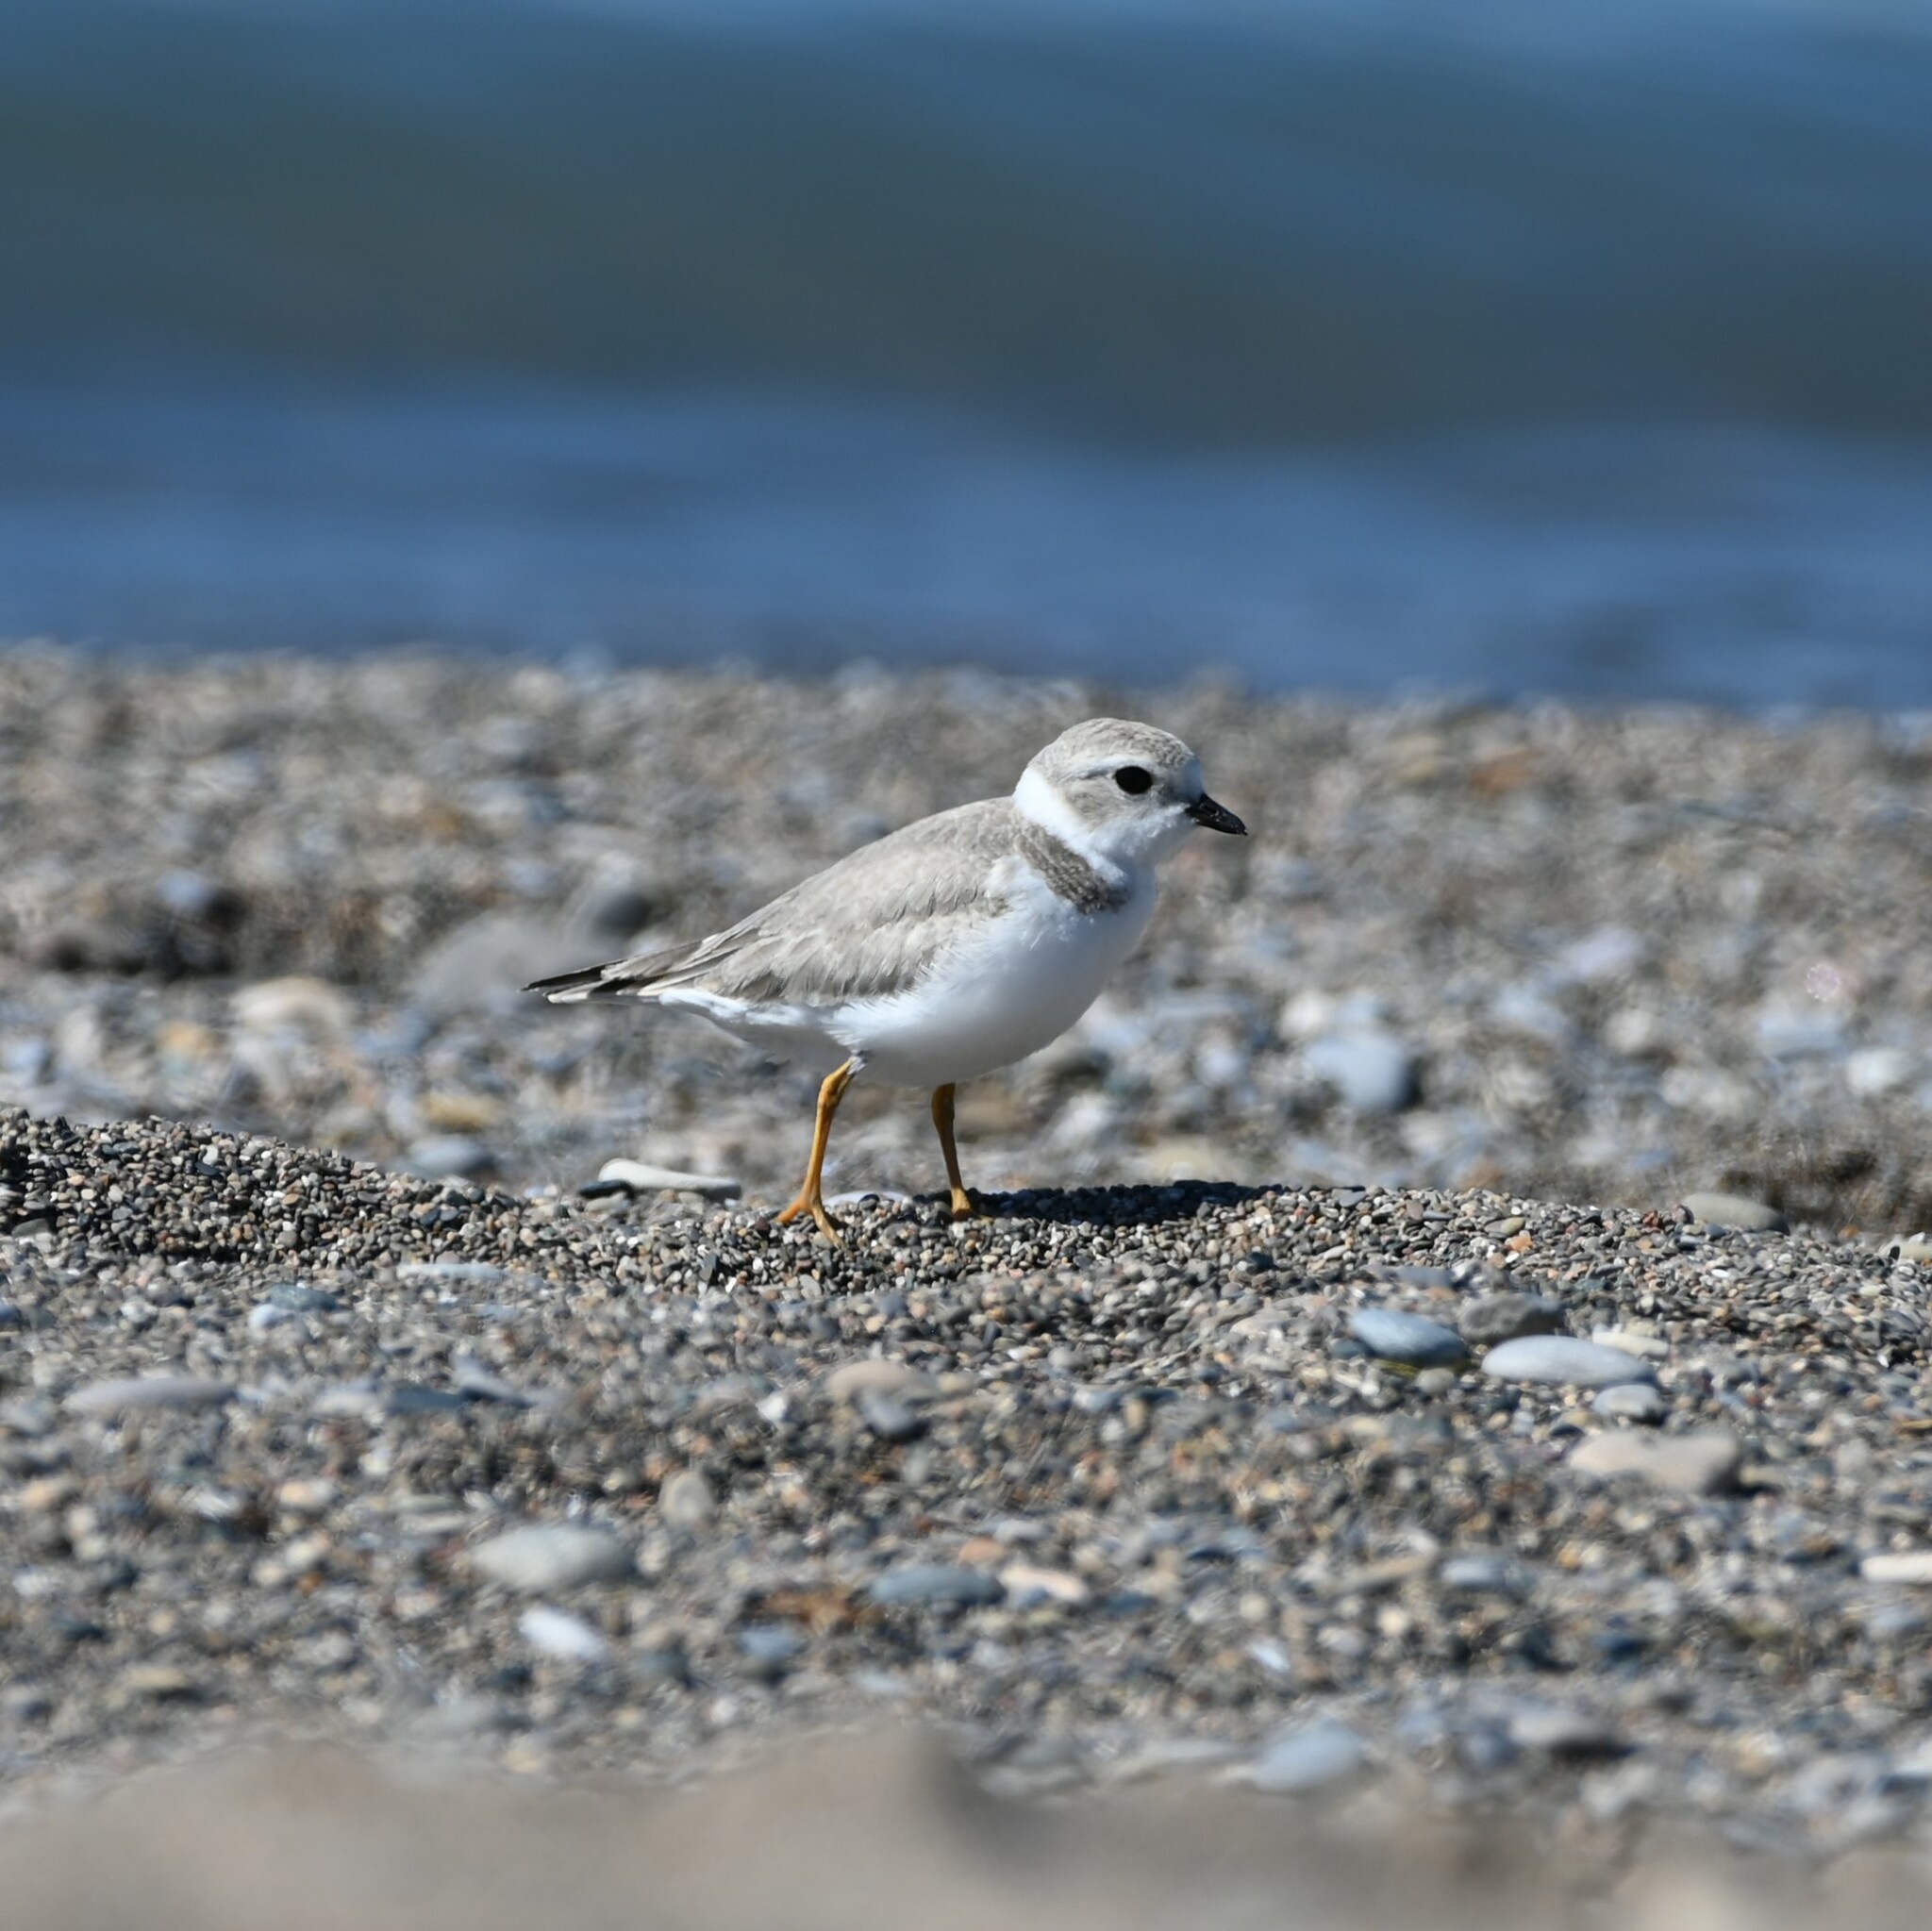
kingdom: Animalia
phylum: Chordata
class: Aves
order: Charadriiformes
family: Charadriidae
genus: Charadrius
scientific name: Charadrius melodus
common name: Piping plover
